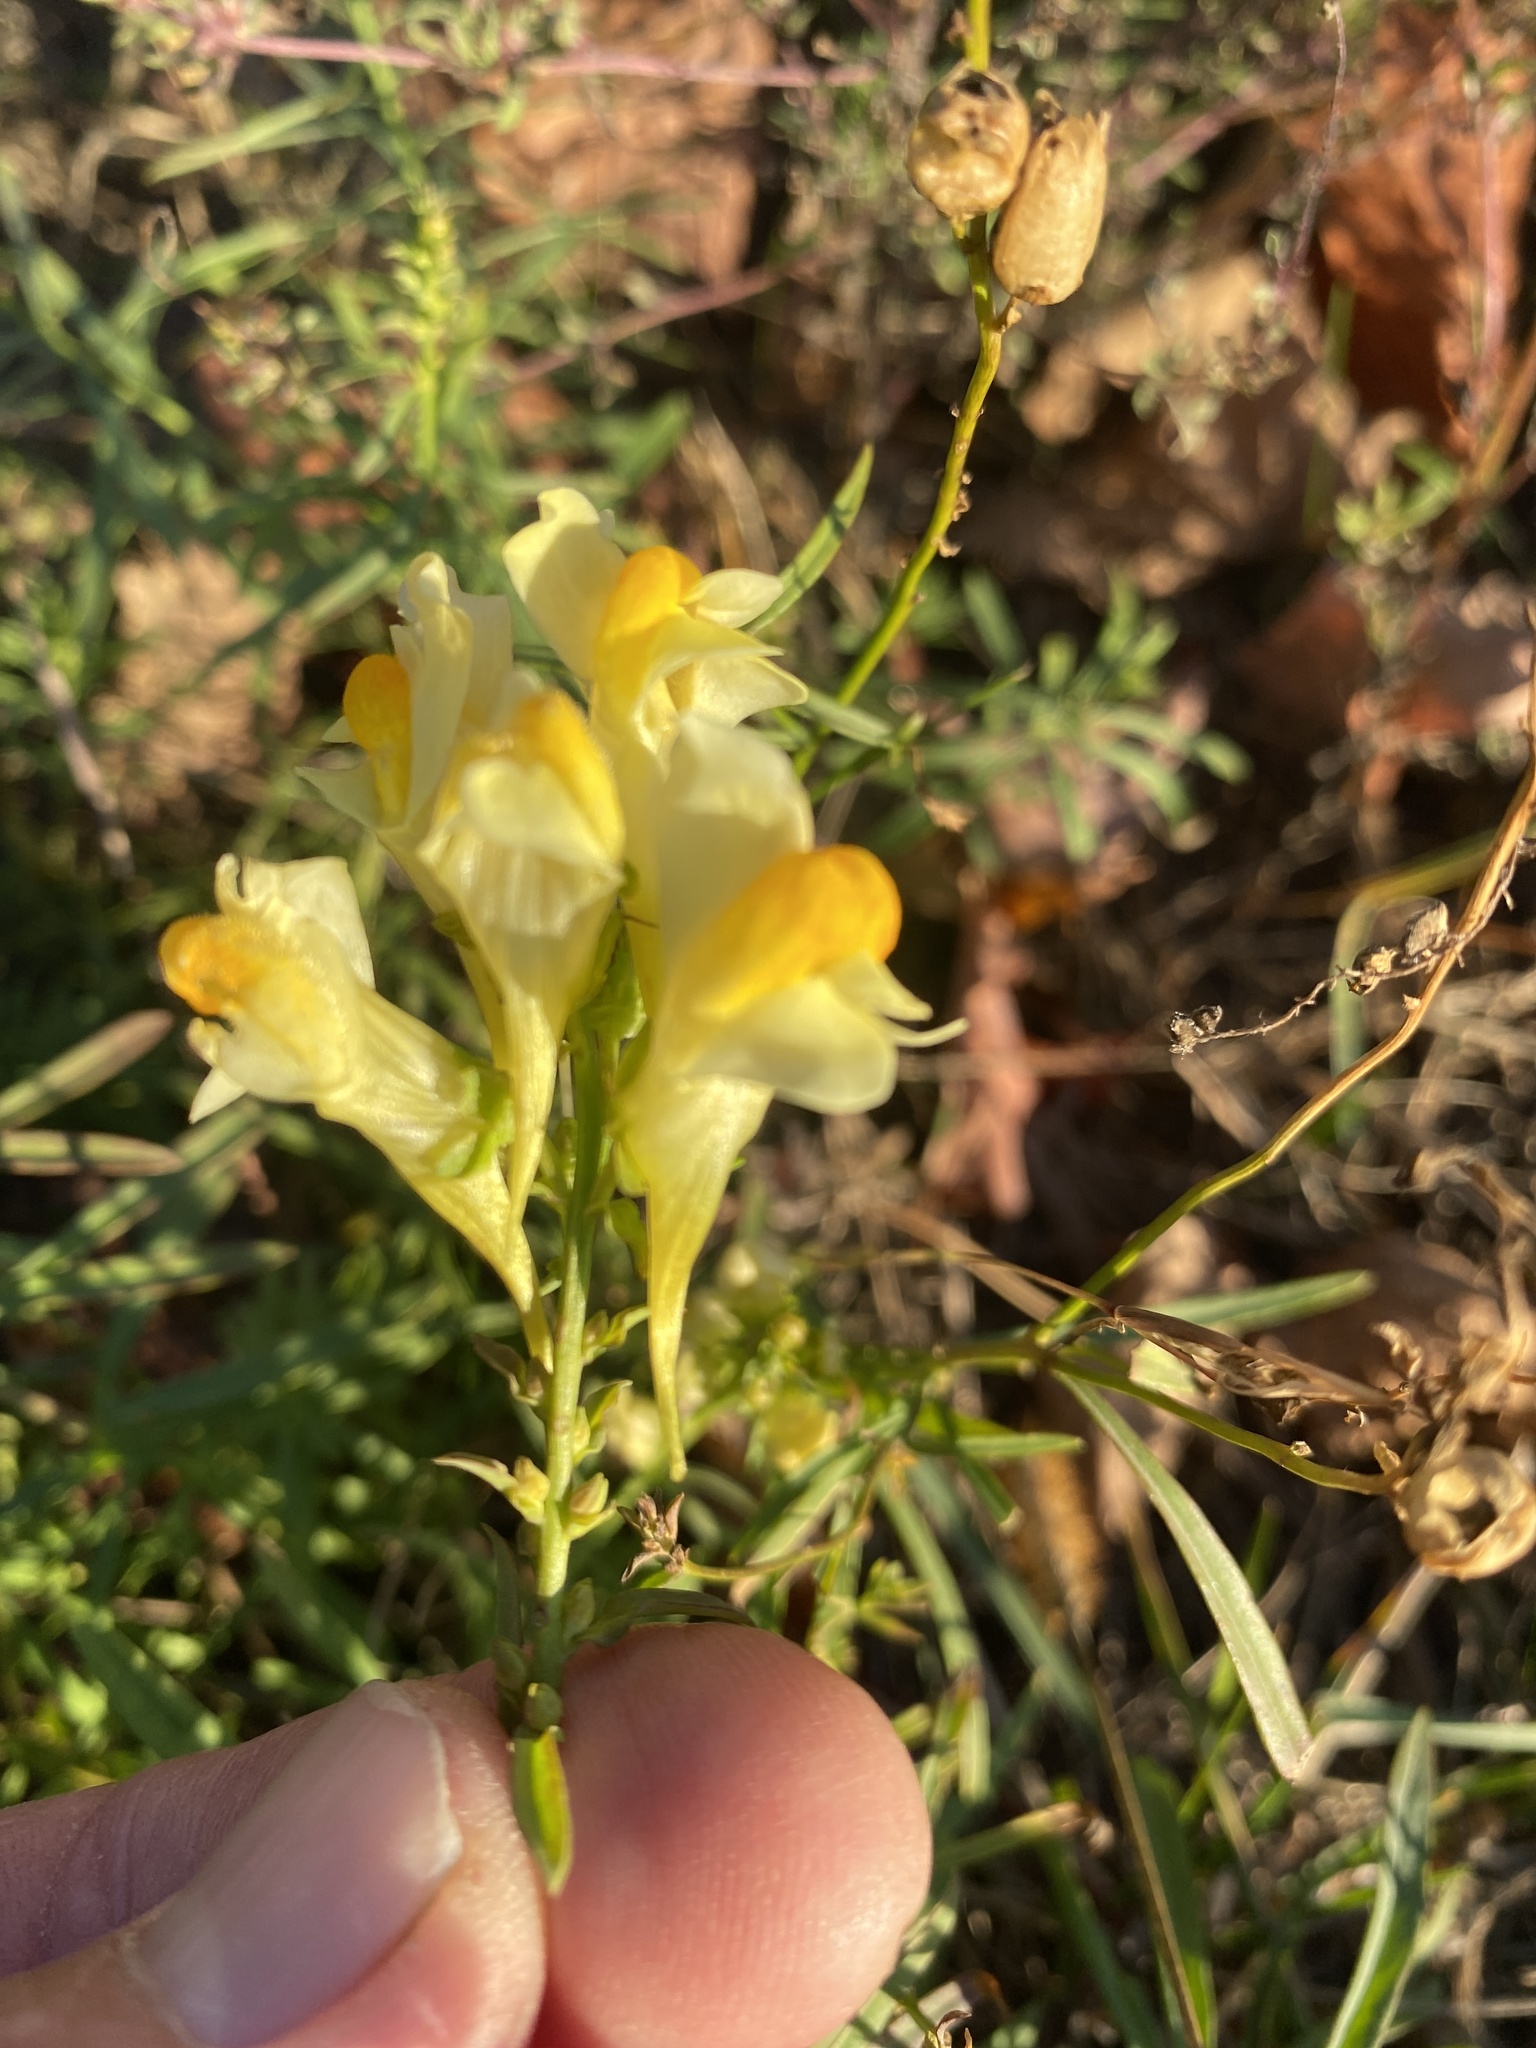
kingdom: Plantae
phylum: Tracheophyta
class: Magnoliopsida
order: Lamiales
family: Plantaginaceae
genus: Linaria
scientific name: Linaria vulgaris
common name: Butter and eggs
